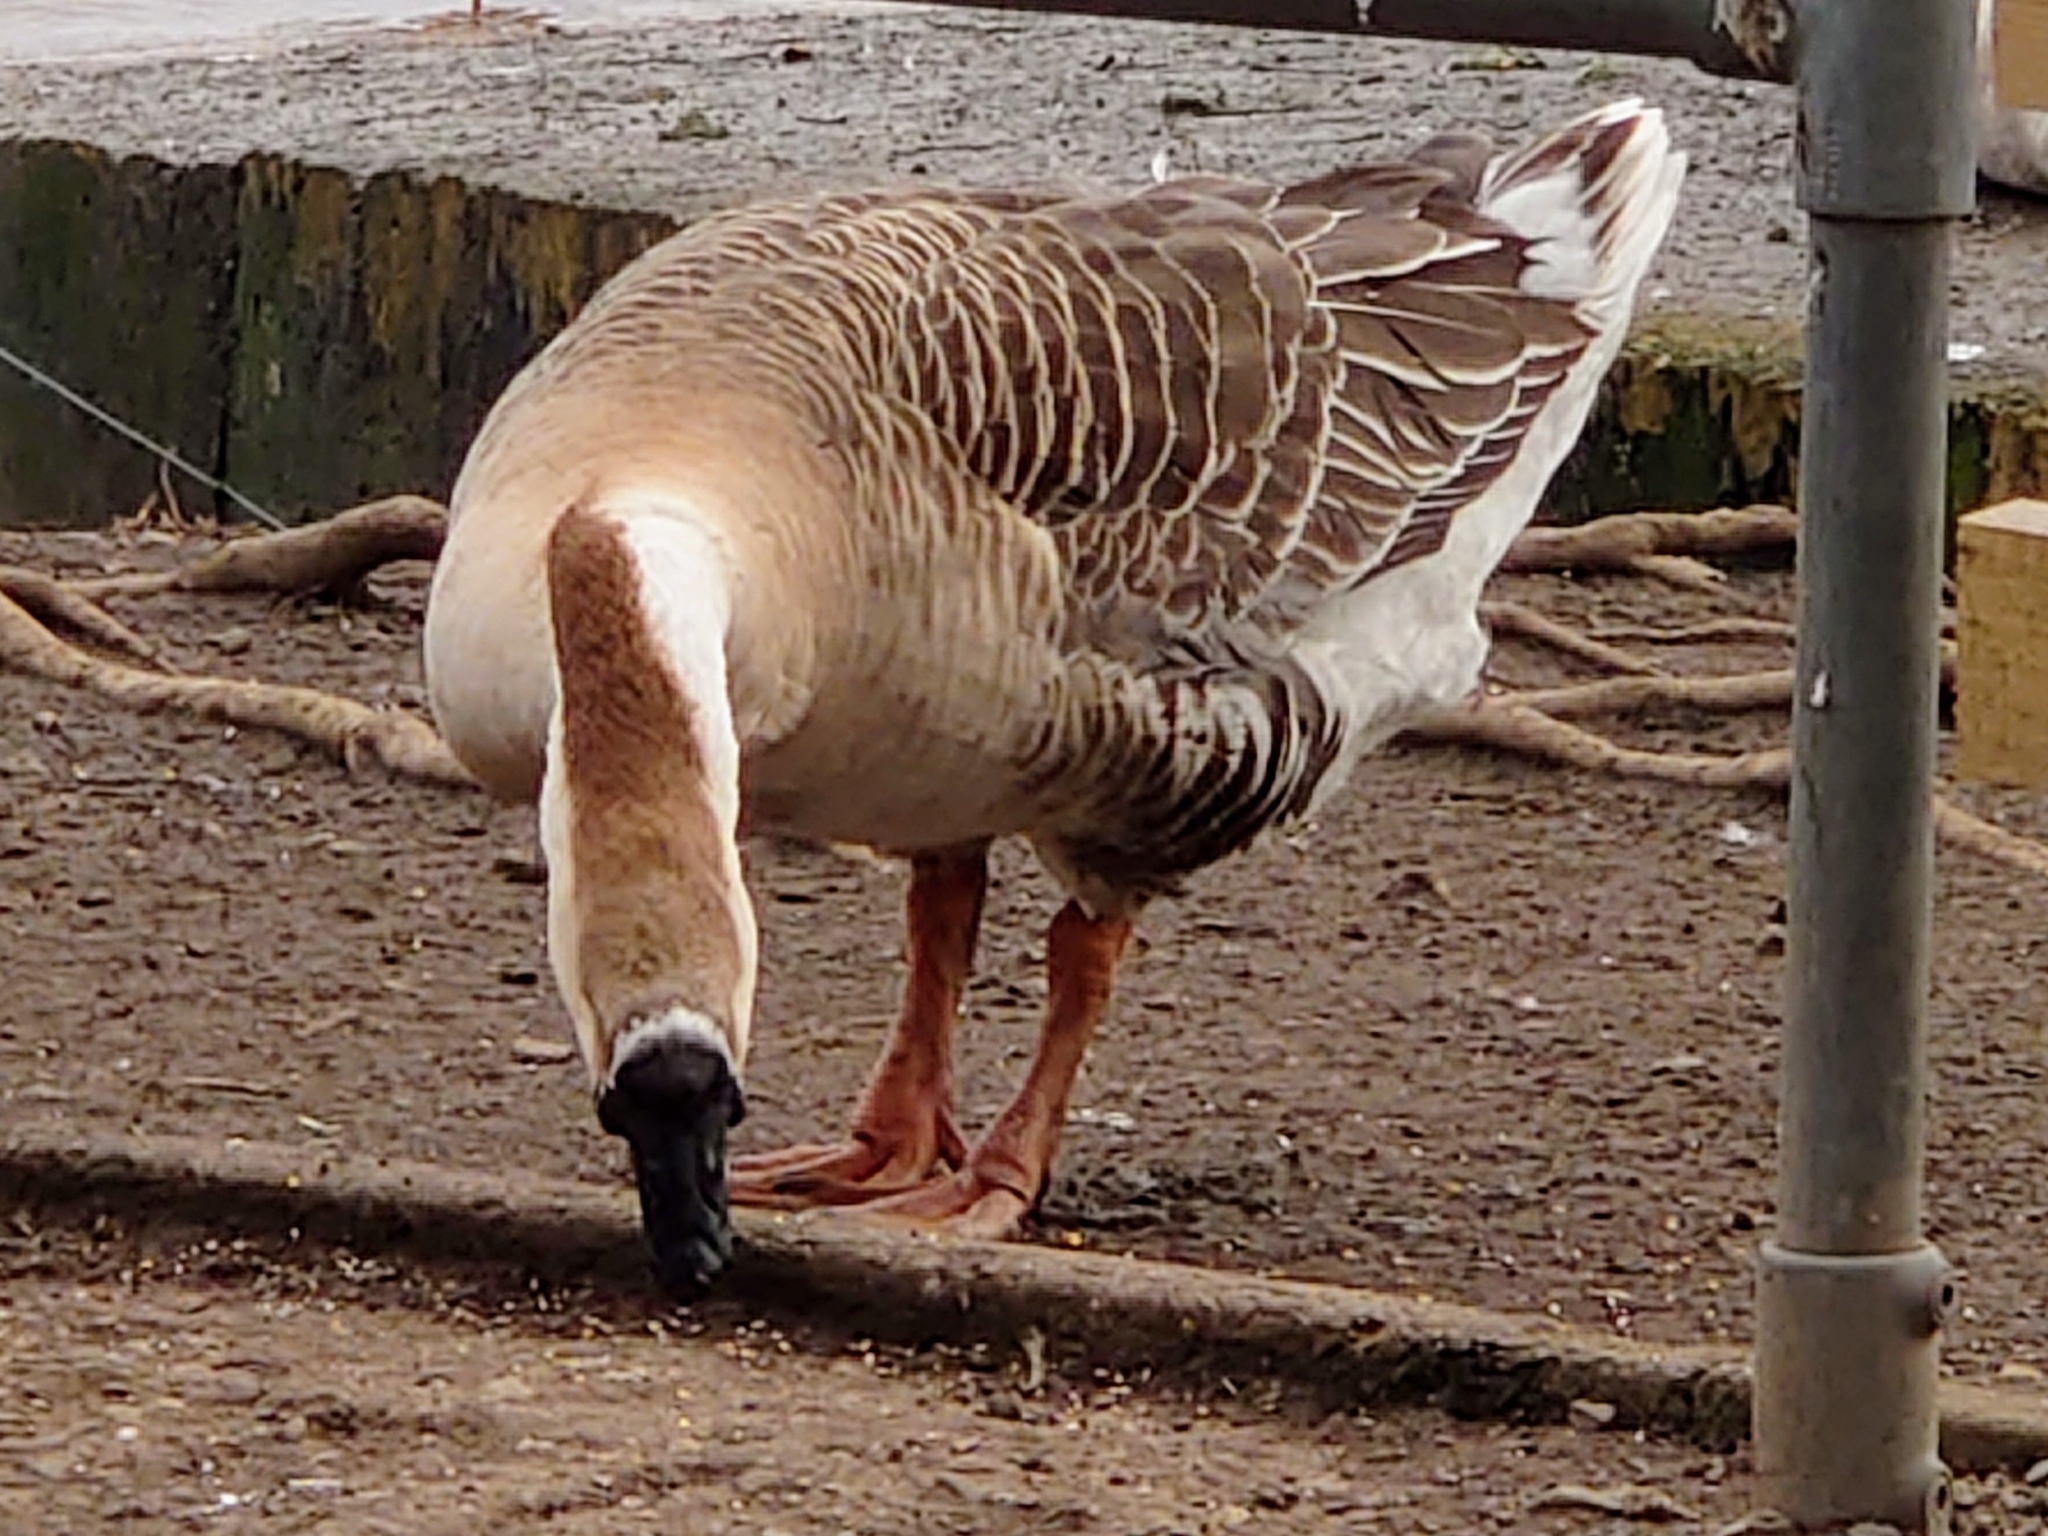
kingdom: Animalia
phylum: Chordata
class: Aves
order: Anseriformes
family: Anatidae
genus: Anser
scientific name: Anser cygnoides
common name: Swan goose
